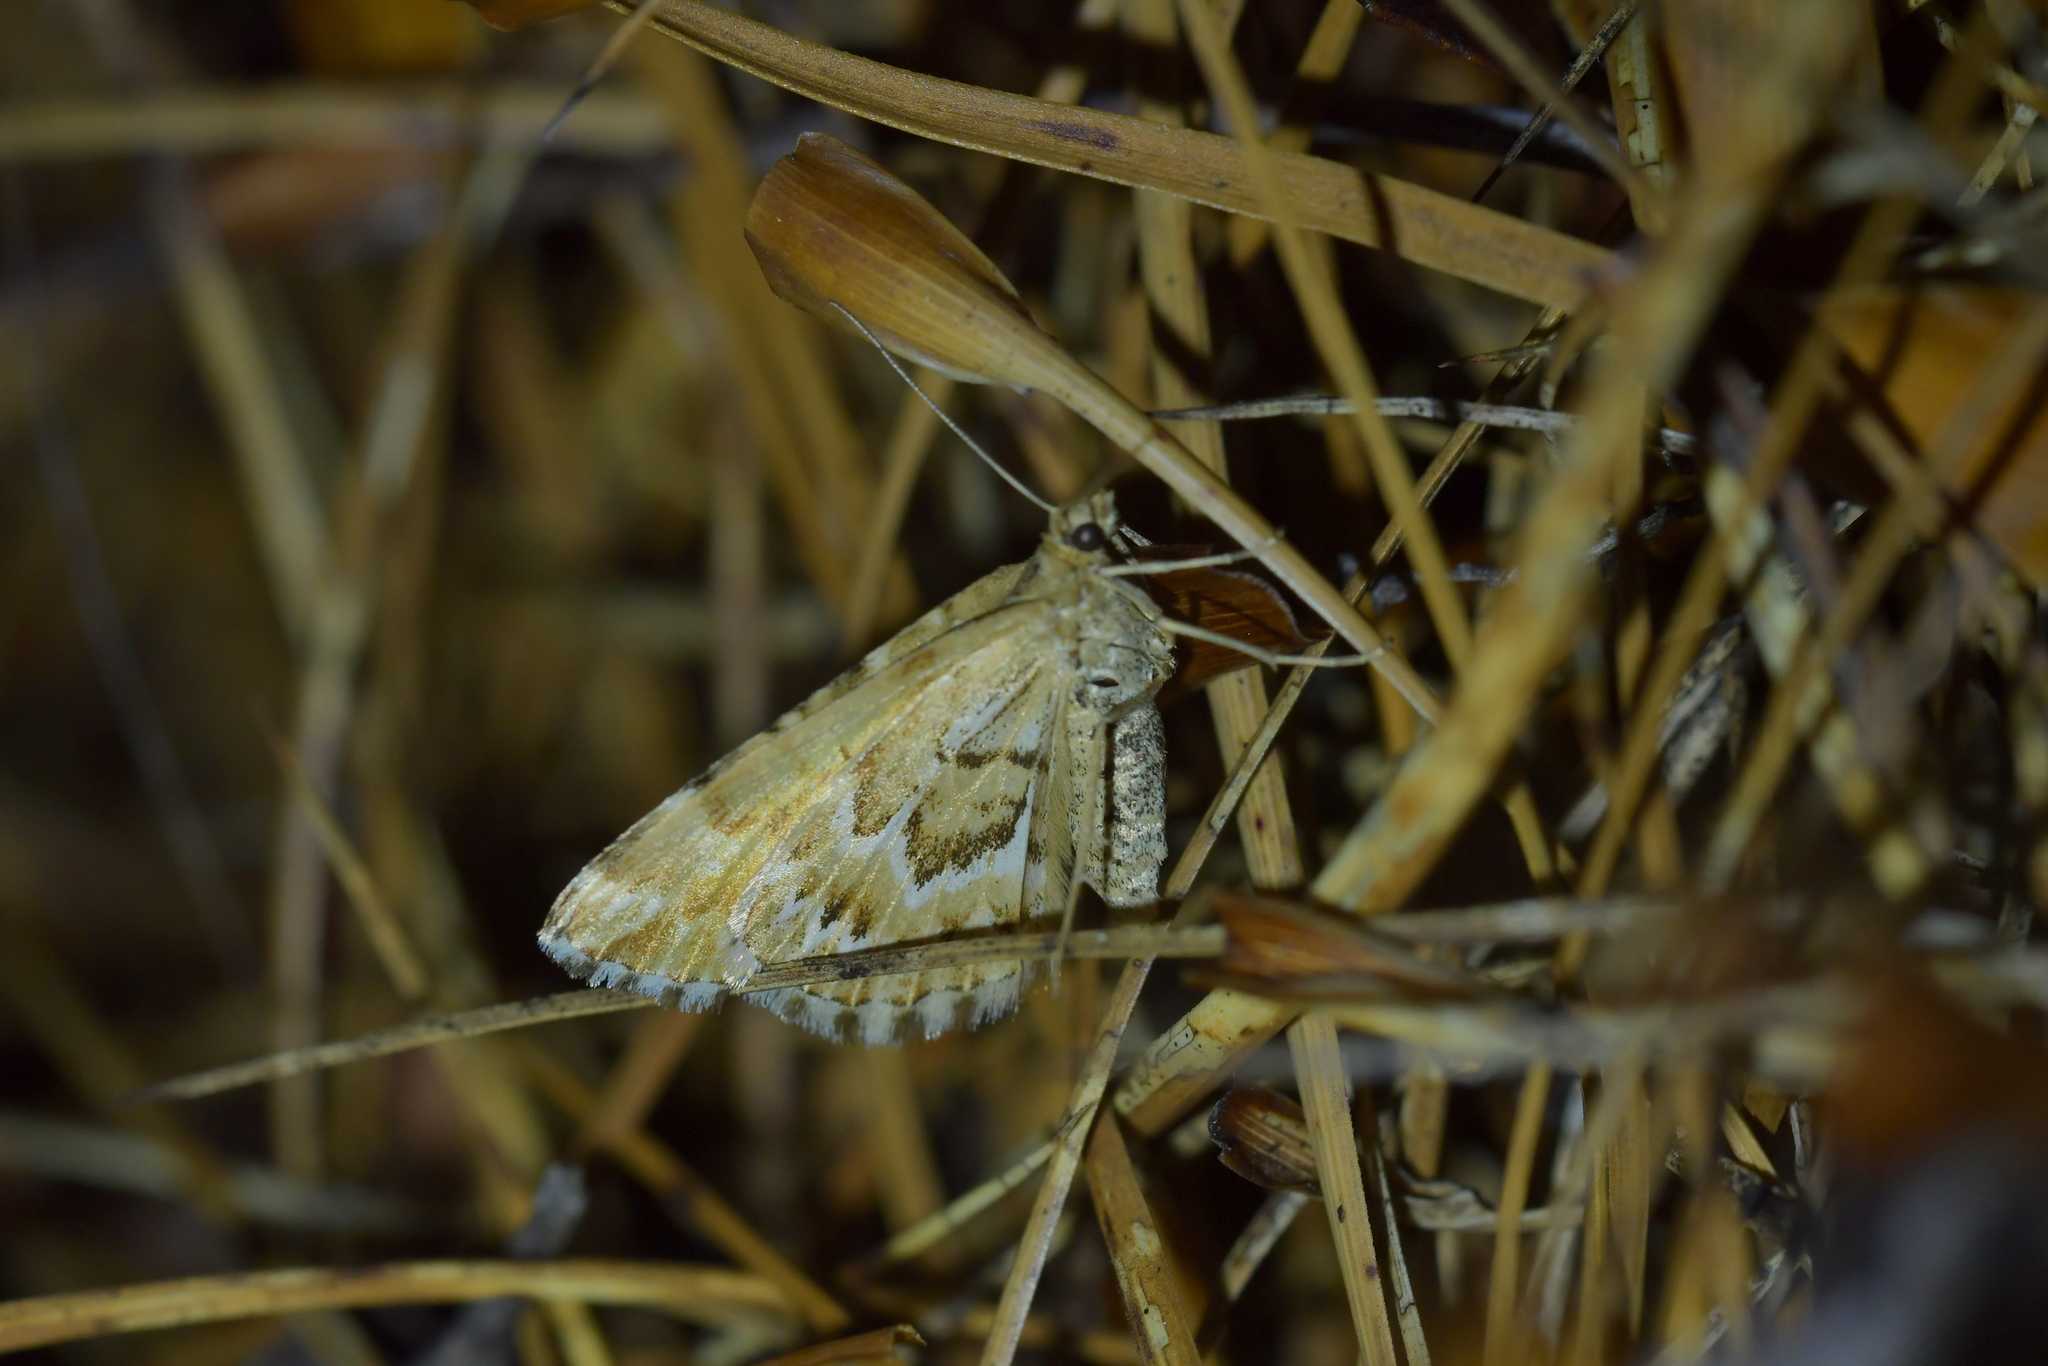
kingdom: Animalia
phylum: Arthropoda
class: Insecta
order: Lepidoptera
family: Geometridae
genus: Asaphodes
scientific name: Asaphodes clarata
